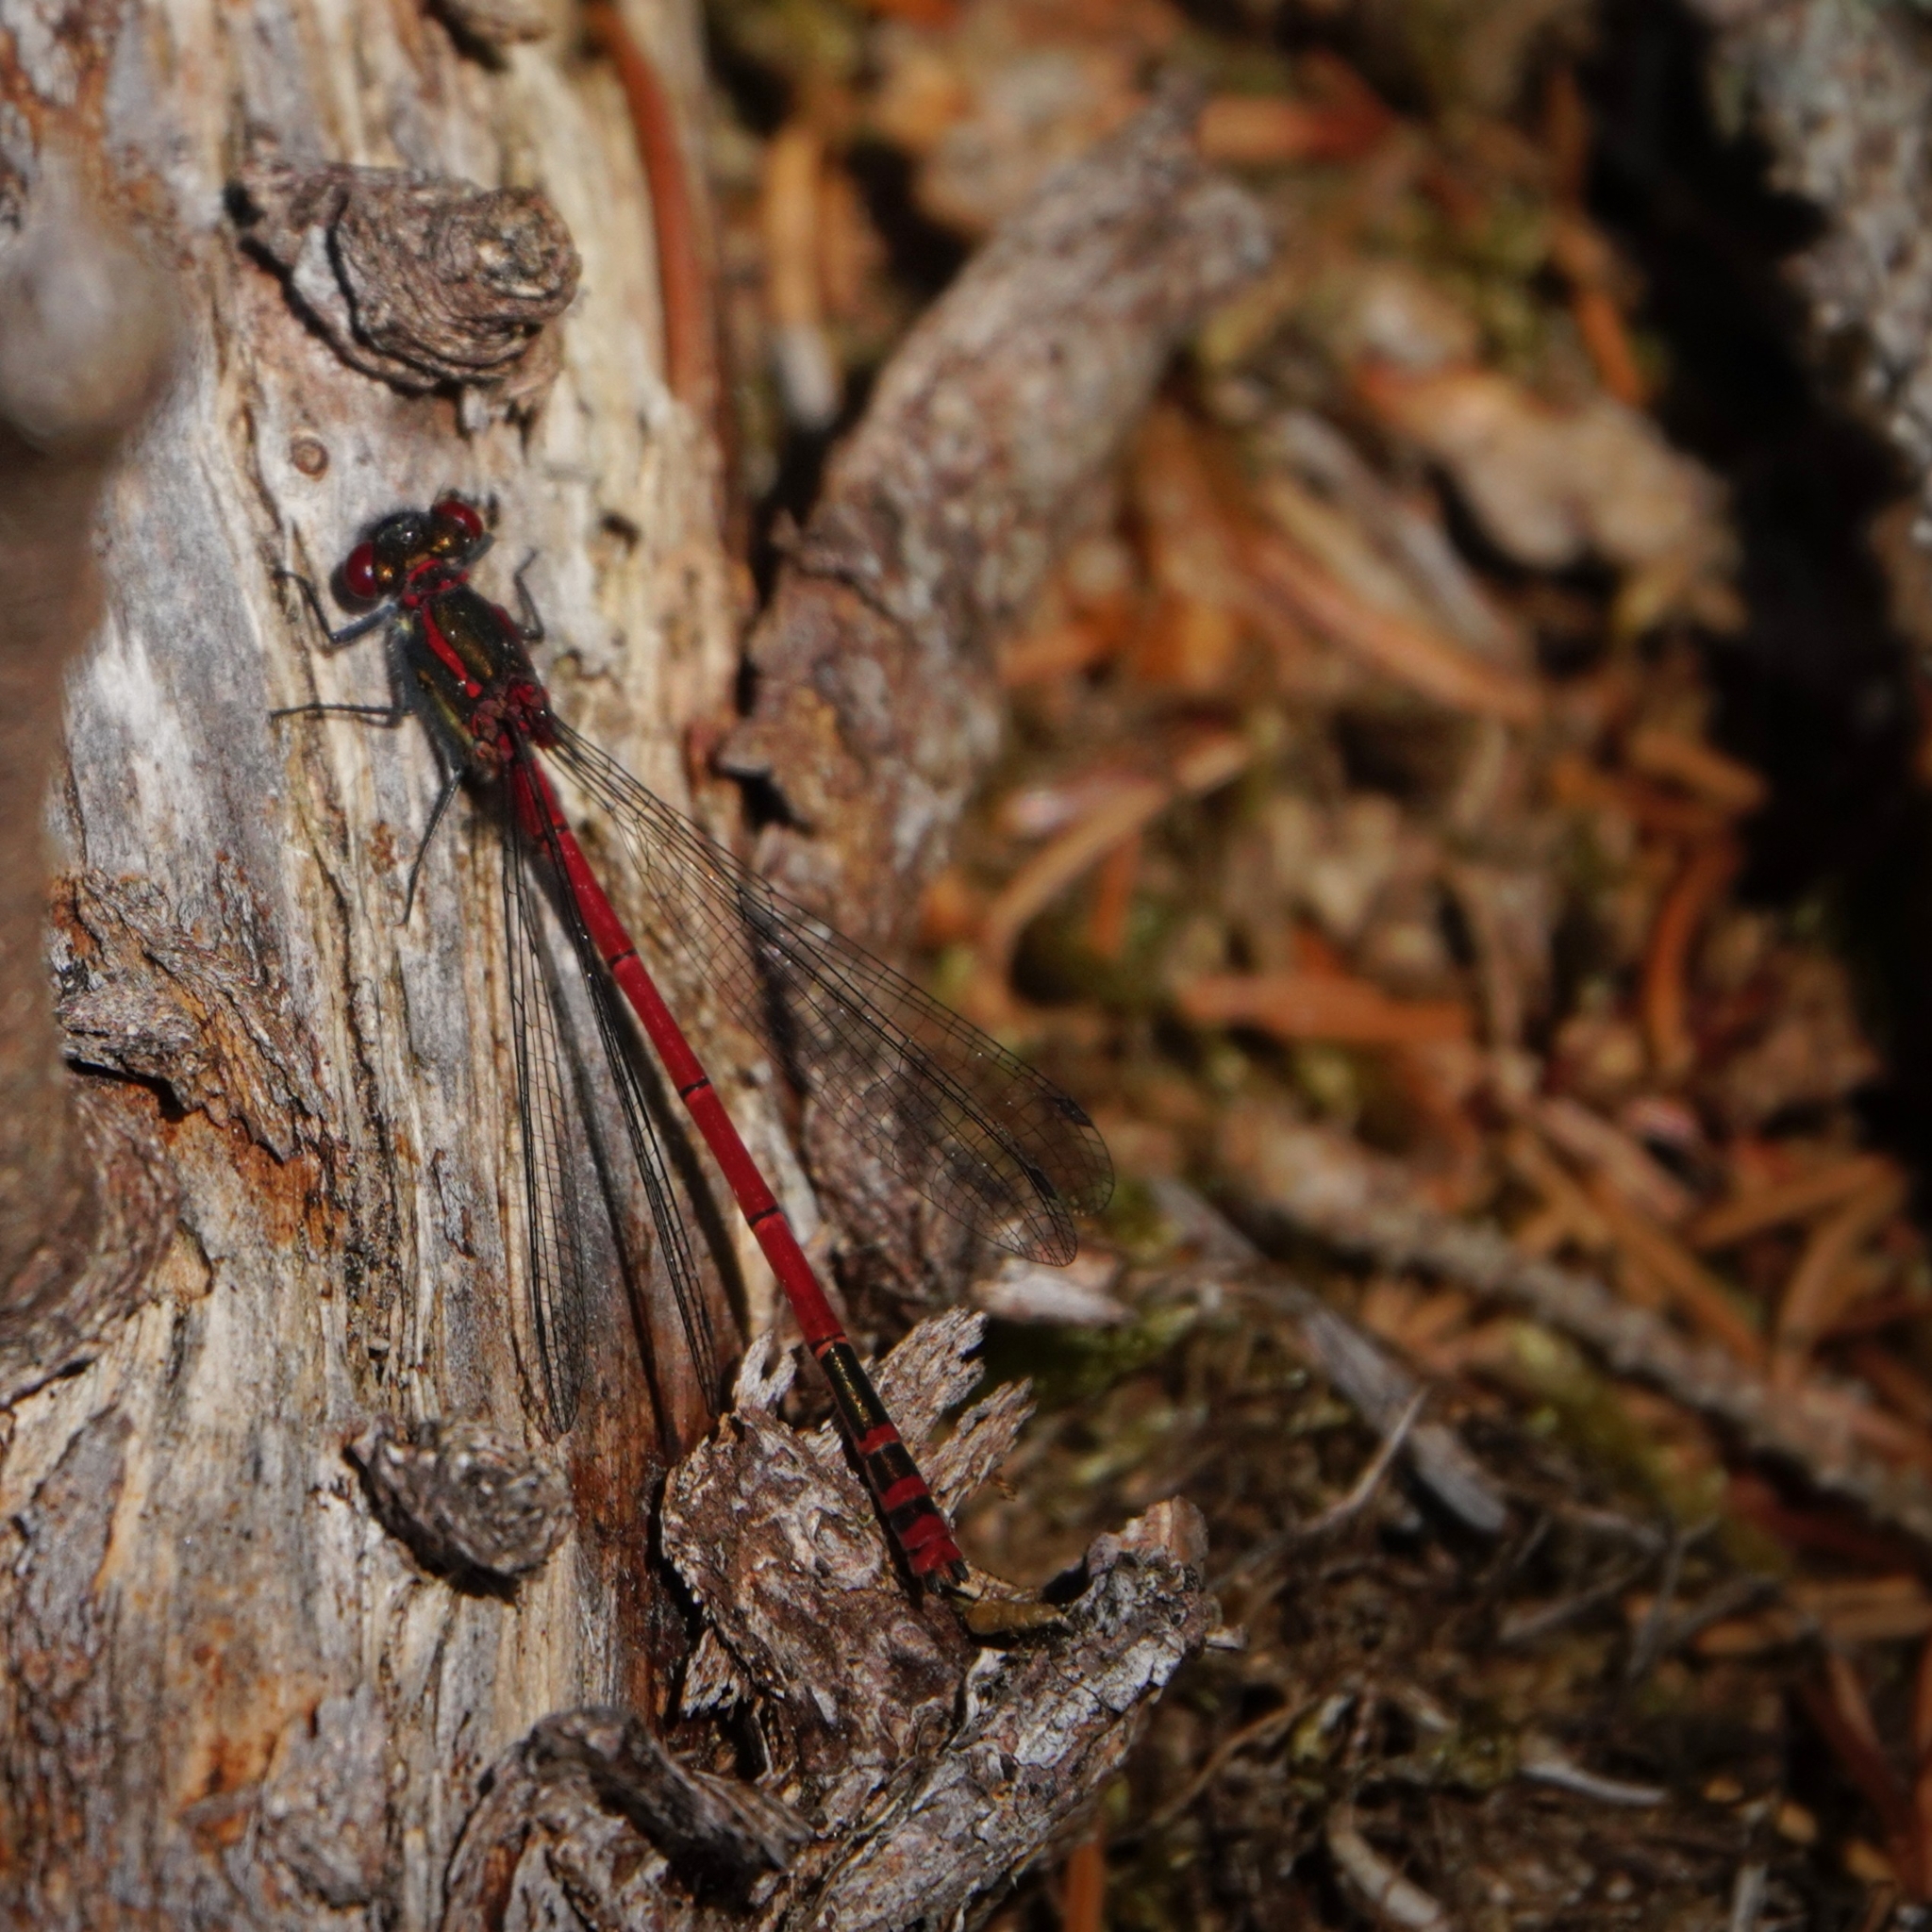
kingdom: Animalia
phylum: Arthropoda
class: Insecta
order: Odonata
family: Coenagrionidae
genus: Pyrrhosoma
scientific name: Pyrrhosoma nymphula
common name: Large red damsel
